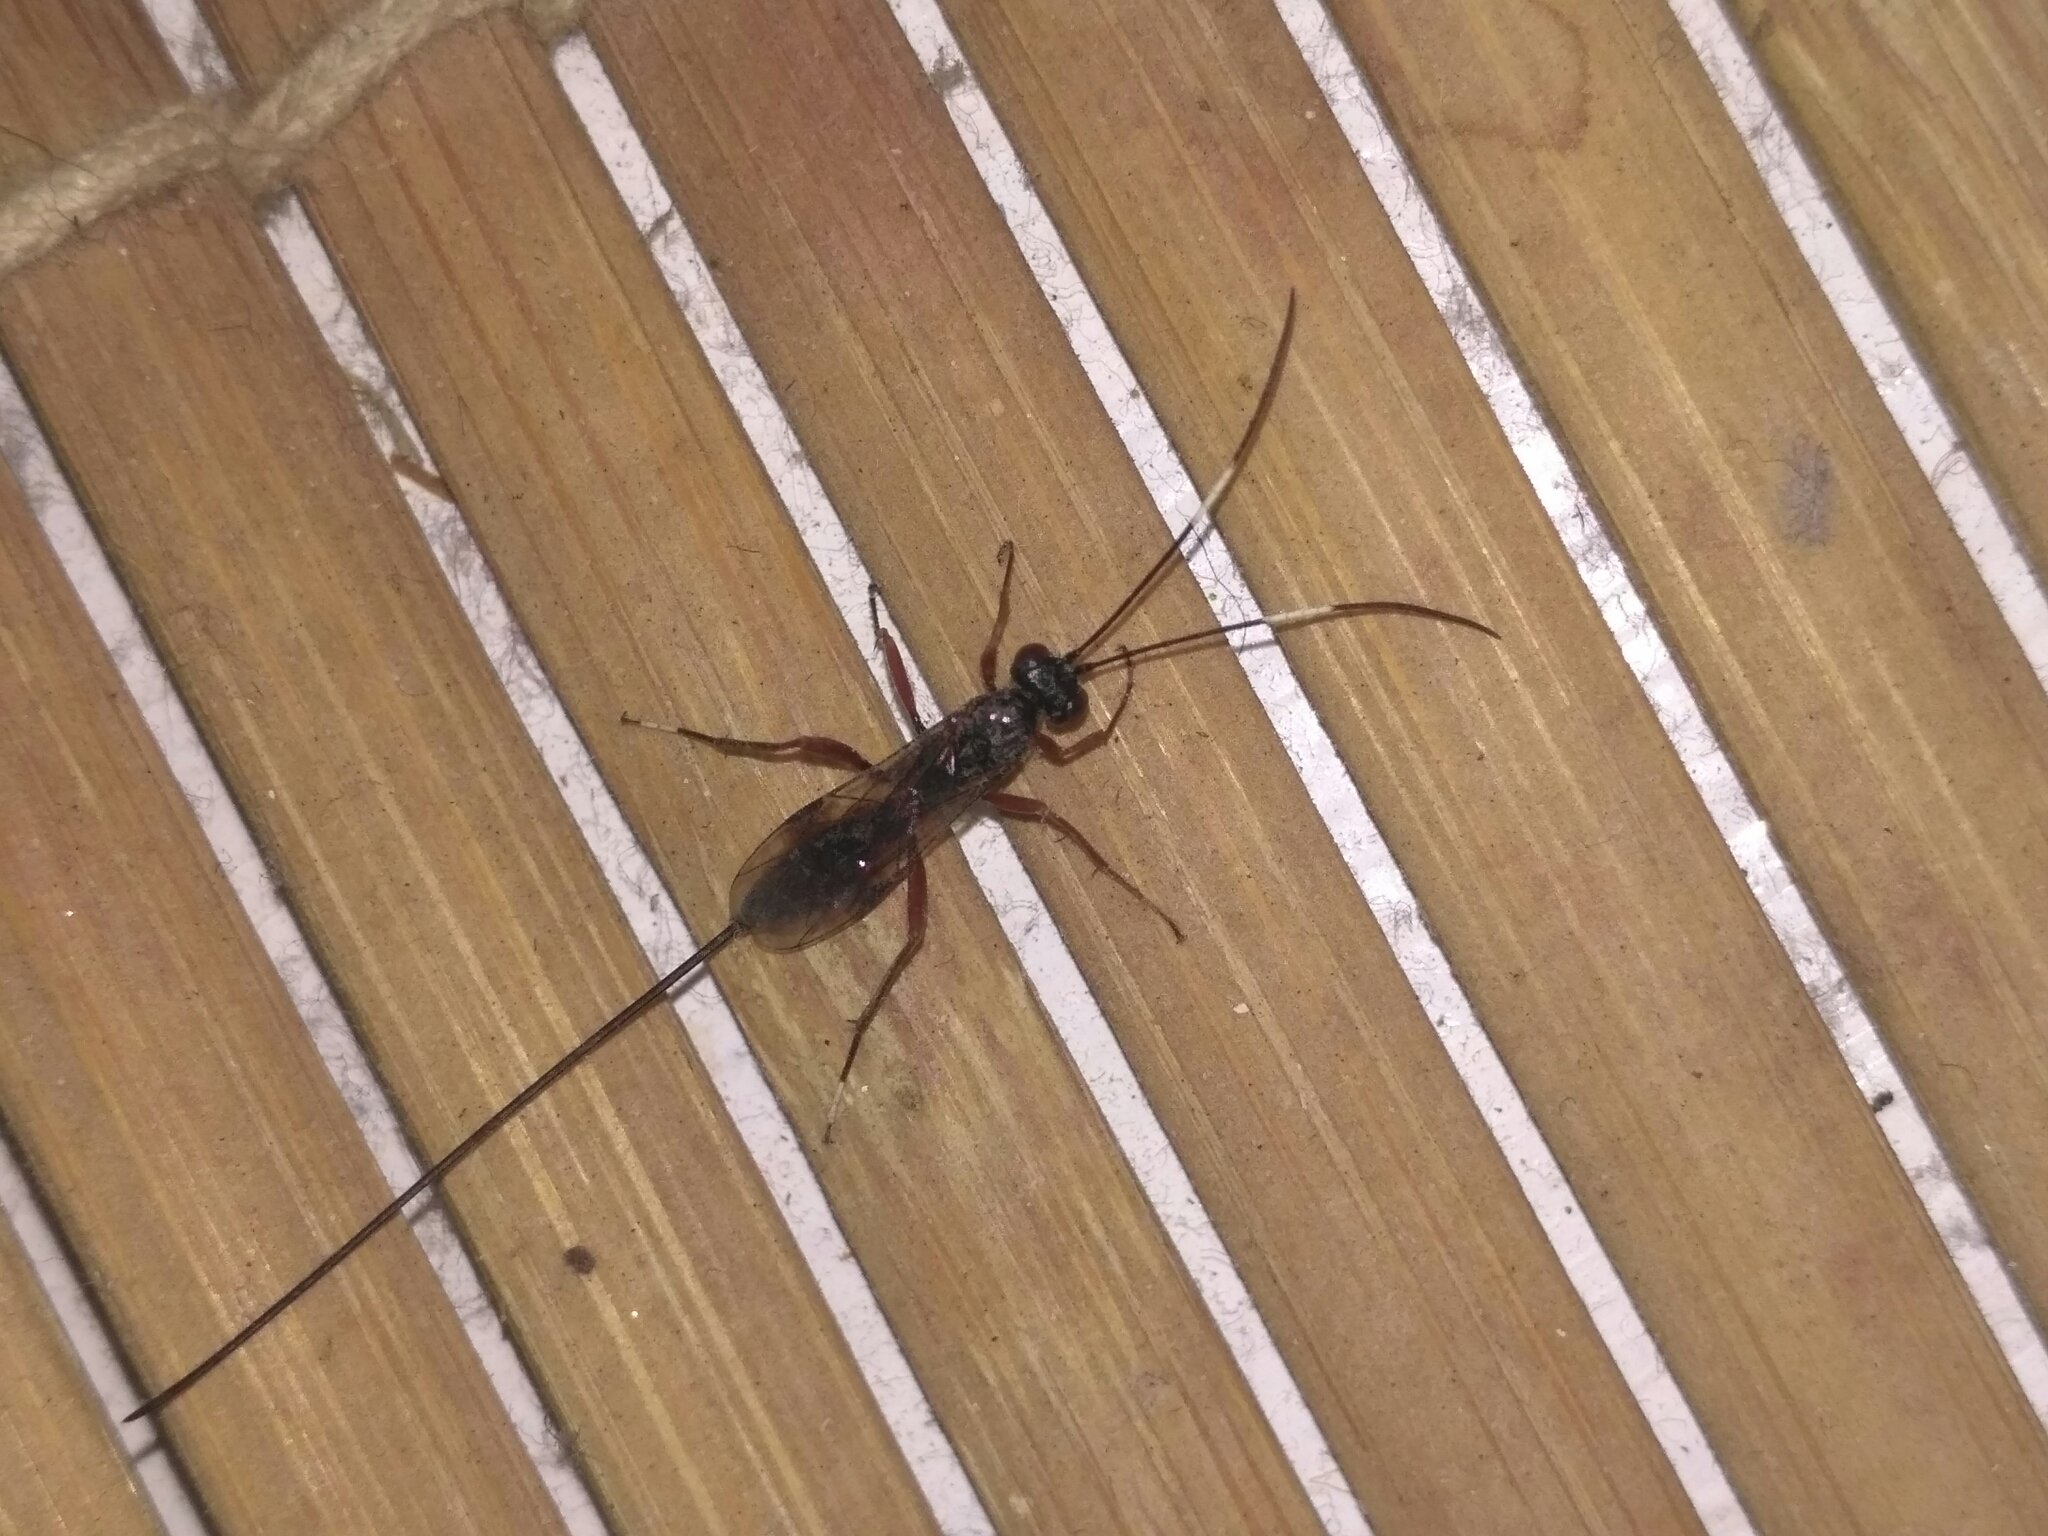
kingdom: Animalia
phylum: Arthropoda
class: Insecta
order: Hymenoptera
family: Ichneumonidae
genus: Stenarella
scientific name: Stenarella domator
